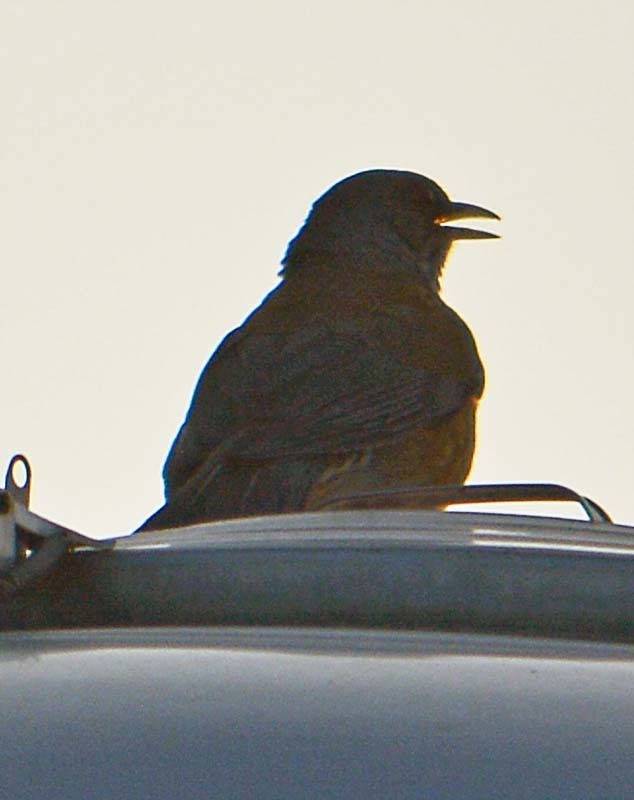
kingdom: Animalia
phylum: Chordata
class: Aves
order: Passeriformes
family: Turdidae
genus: Turdus
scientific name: Turdus rufopalliatus
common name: Rufous-backed robin
